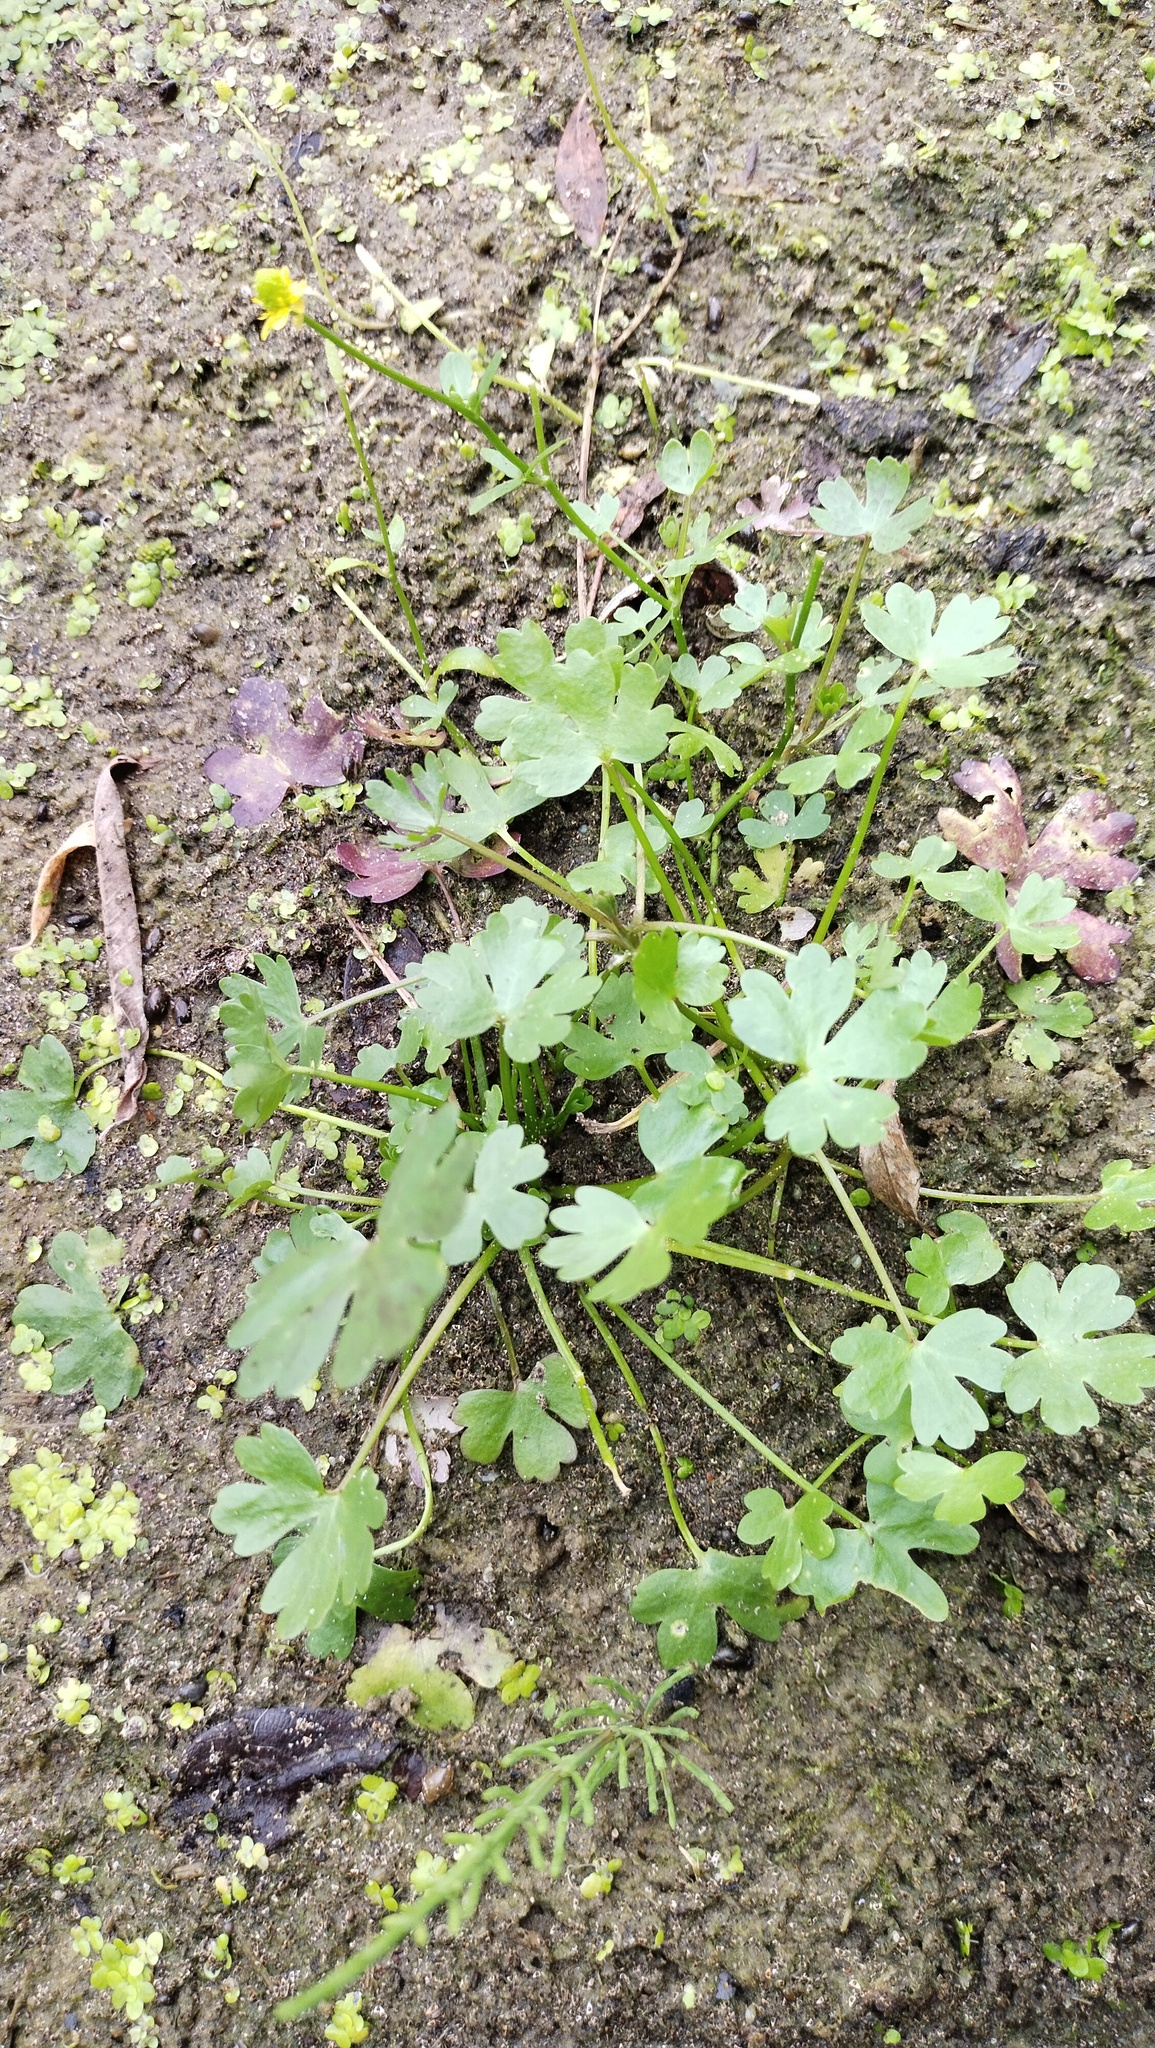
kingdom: Plantae
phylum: Tracheophyta
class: Magnoliopsida
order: Ranunculales
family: Ranunculaceae
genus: Ranunculus
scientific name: Ranunculus sceleratus
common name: Celery-leaved buttercup
